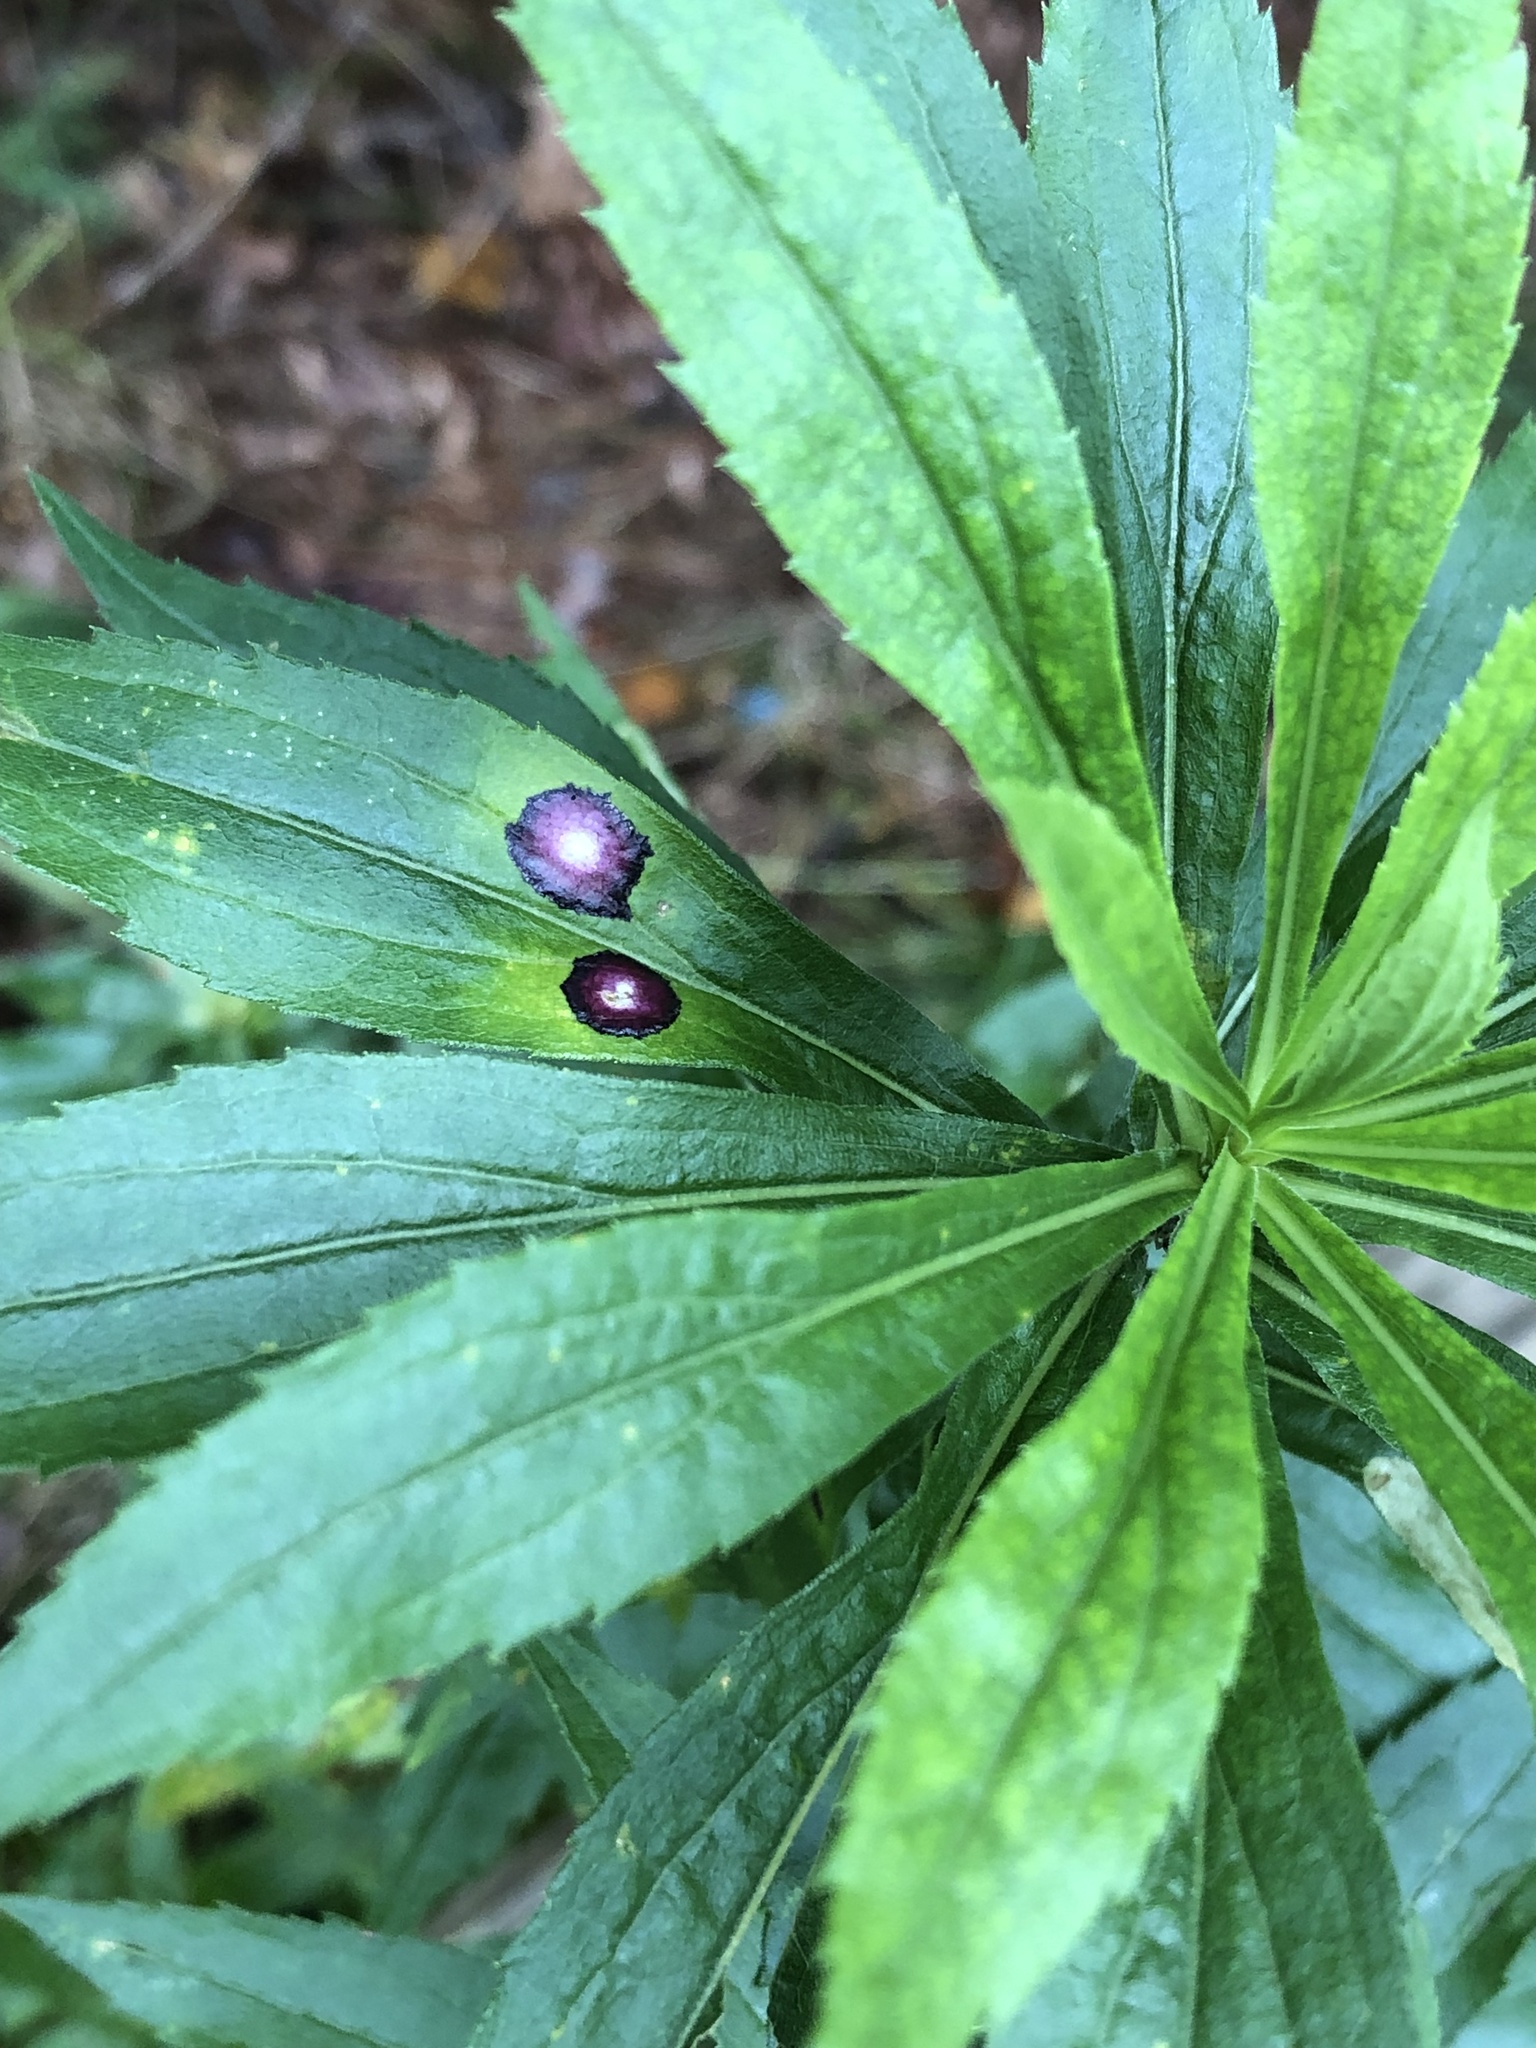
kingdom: Animalia
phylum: Arthropoda
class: Insecta
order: Diptera
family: Cecidomyiidae
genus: Asteromyia
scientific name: Asteromyia carbonifera
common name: Carbonifera goldenrod gall midge
